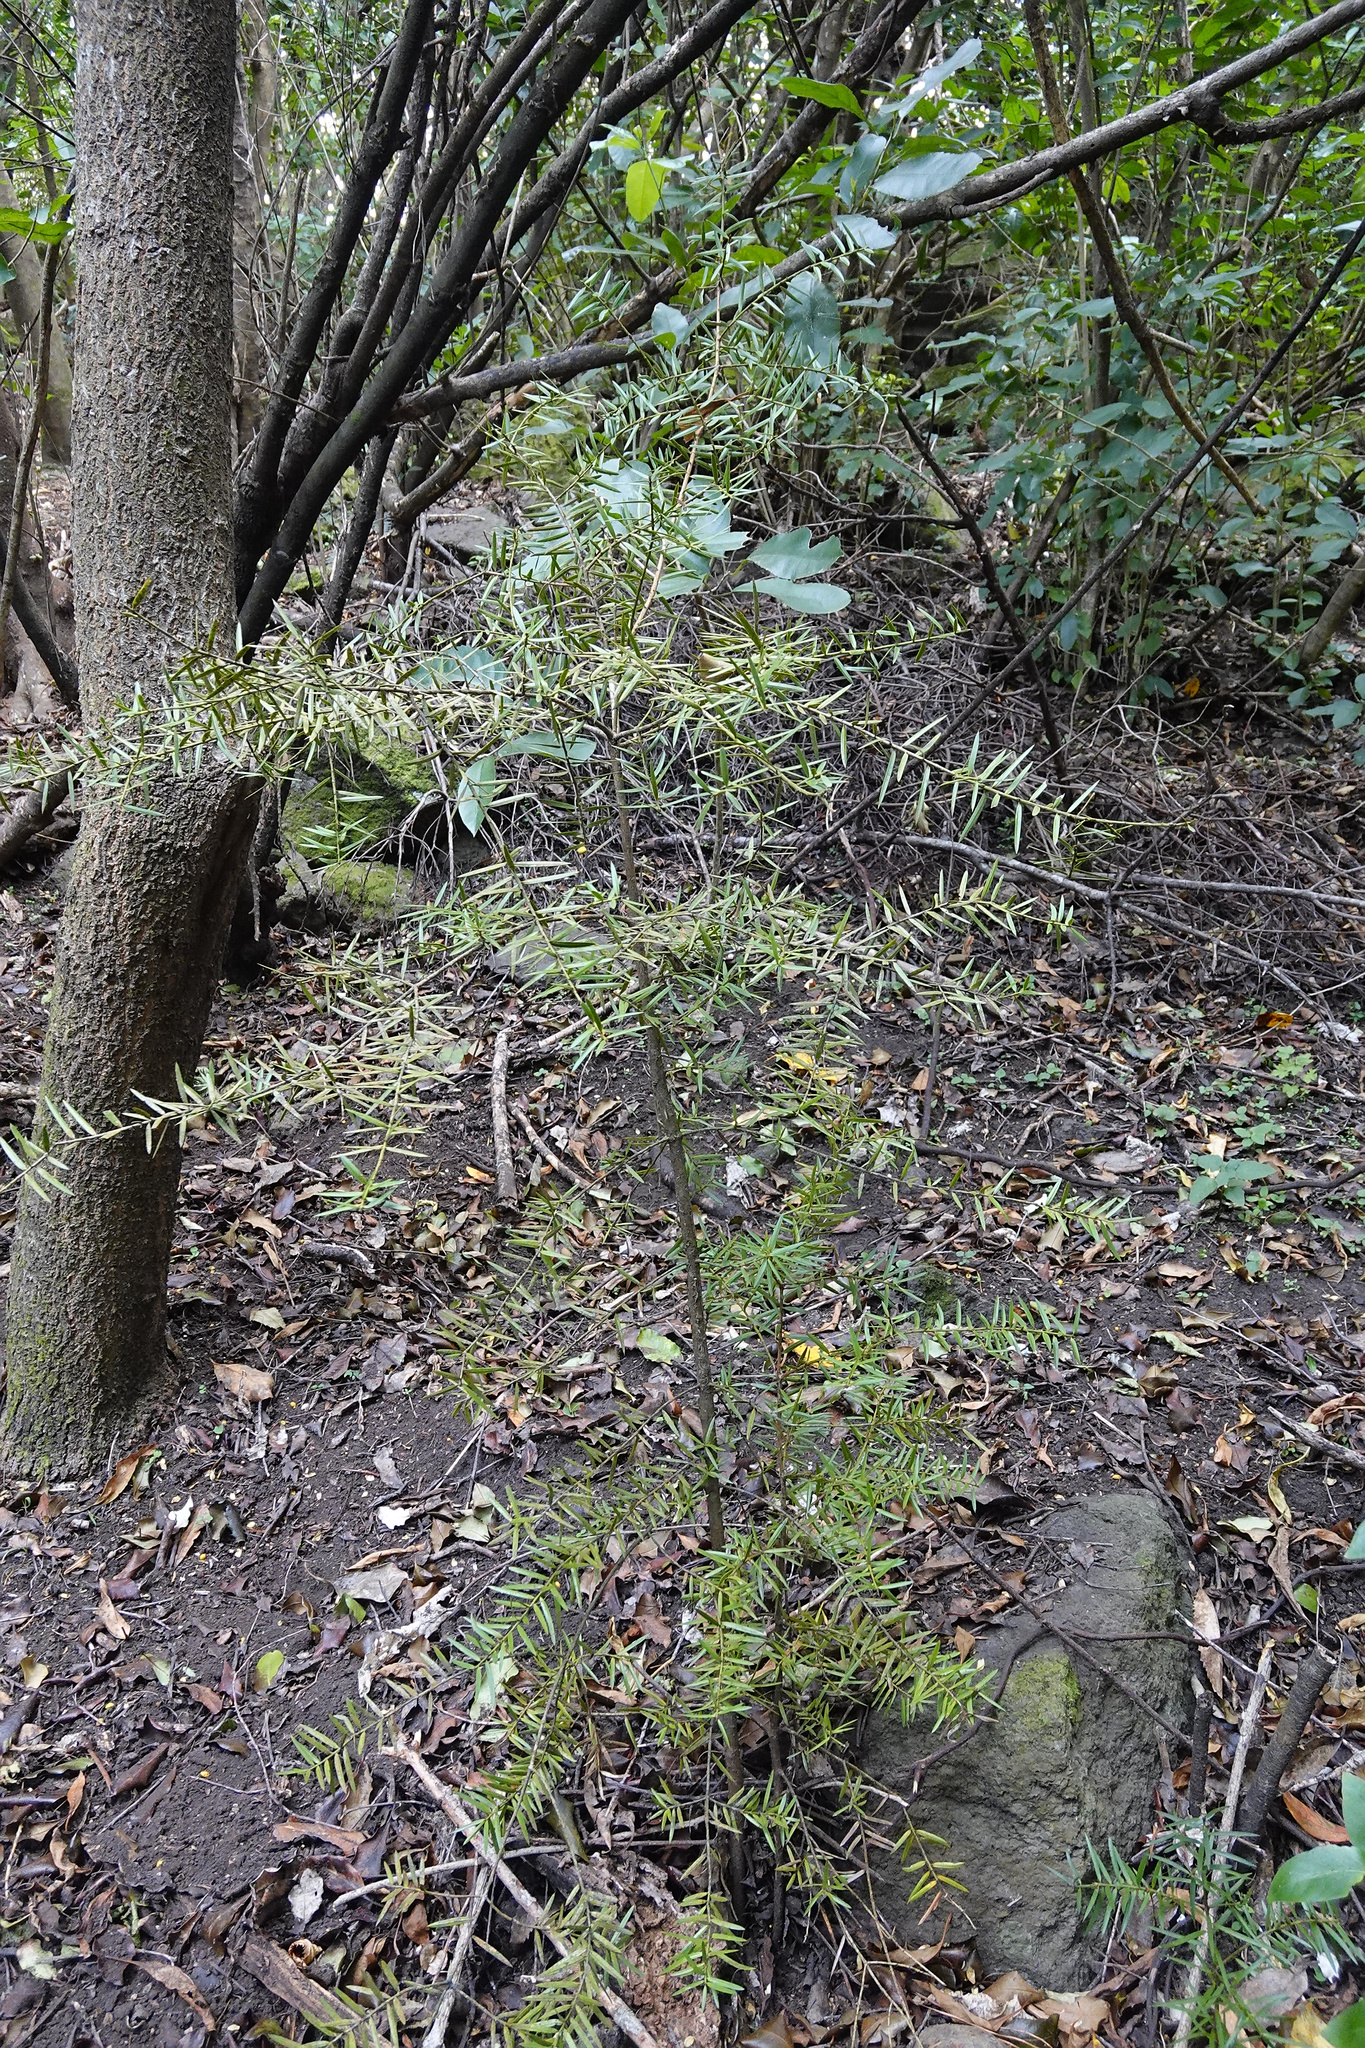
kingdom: Plantae
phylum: Tracheophyta
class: Pinopsida
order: Pinales
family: Podocarpaceae
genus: Podocarpus
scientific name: Podocarpus totara
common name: Totara
